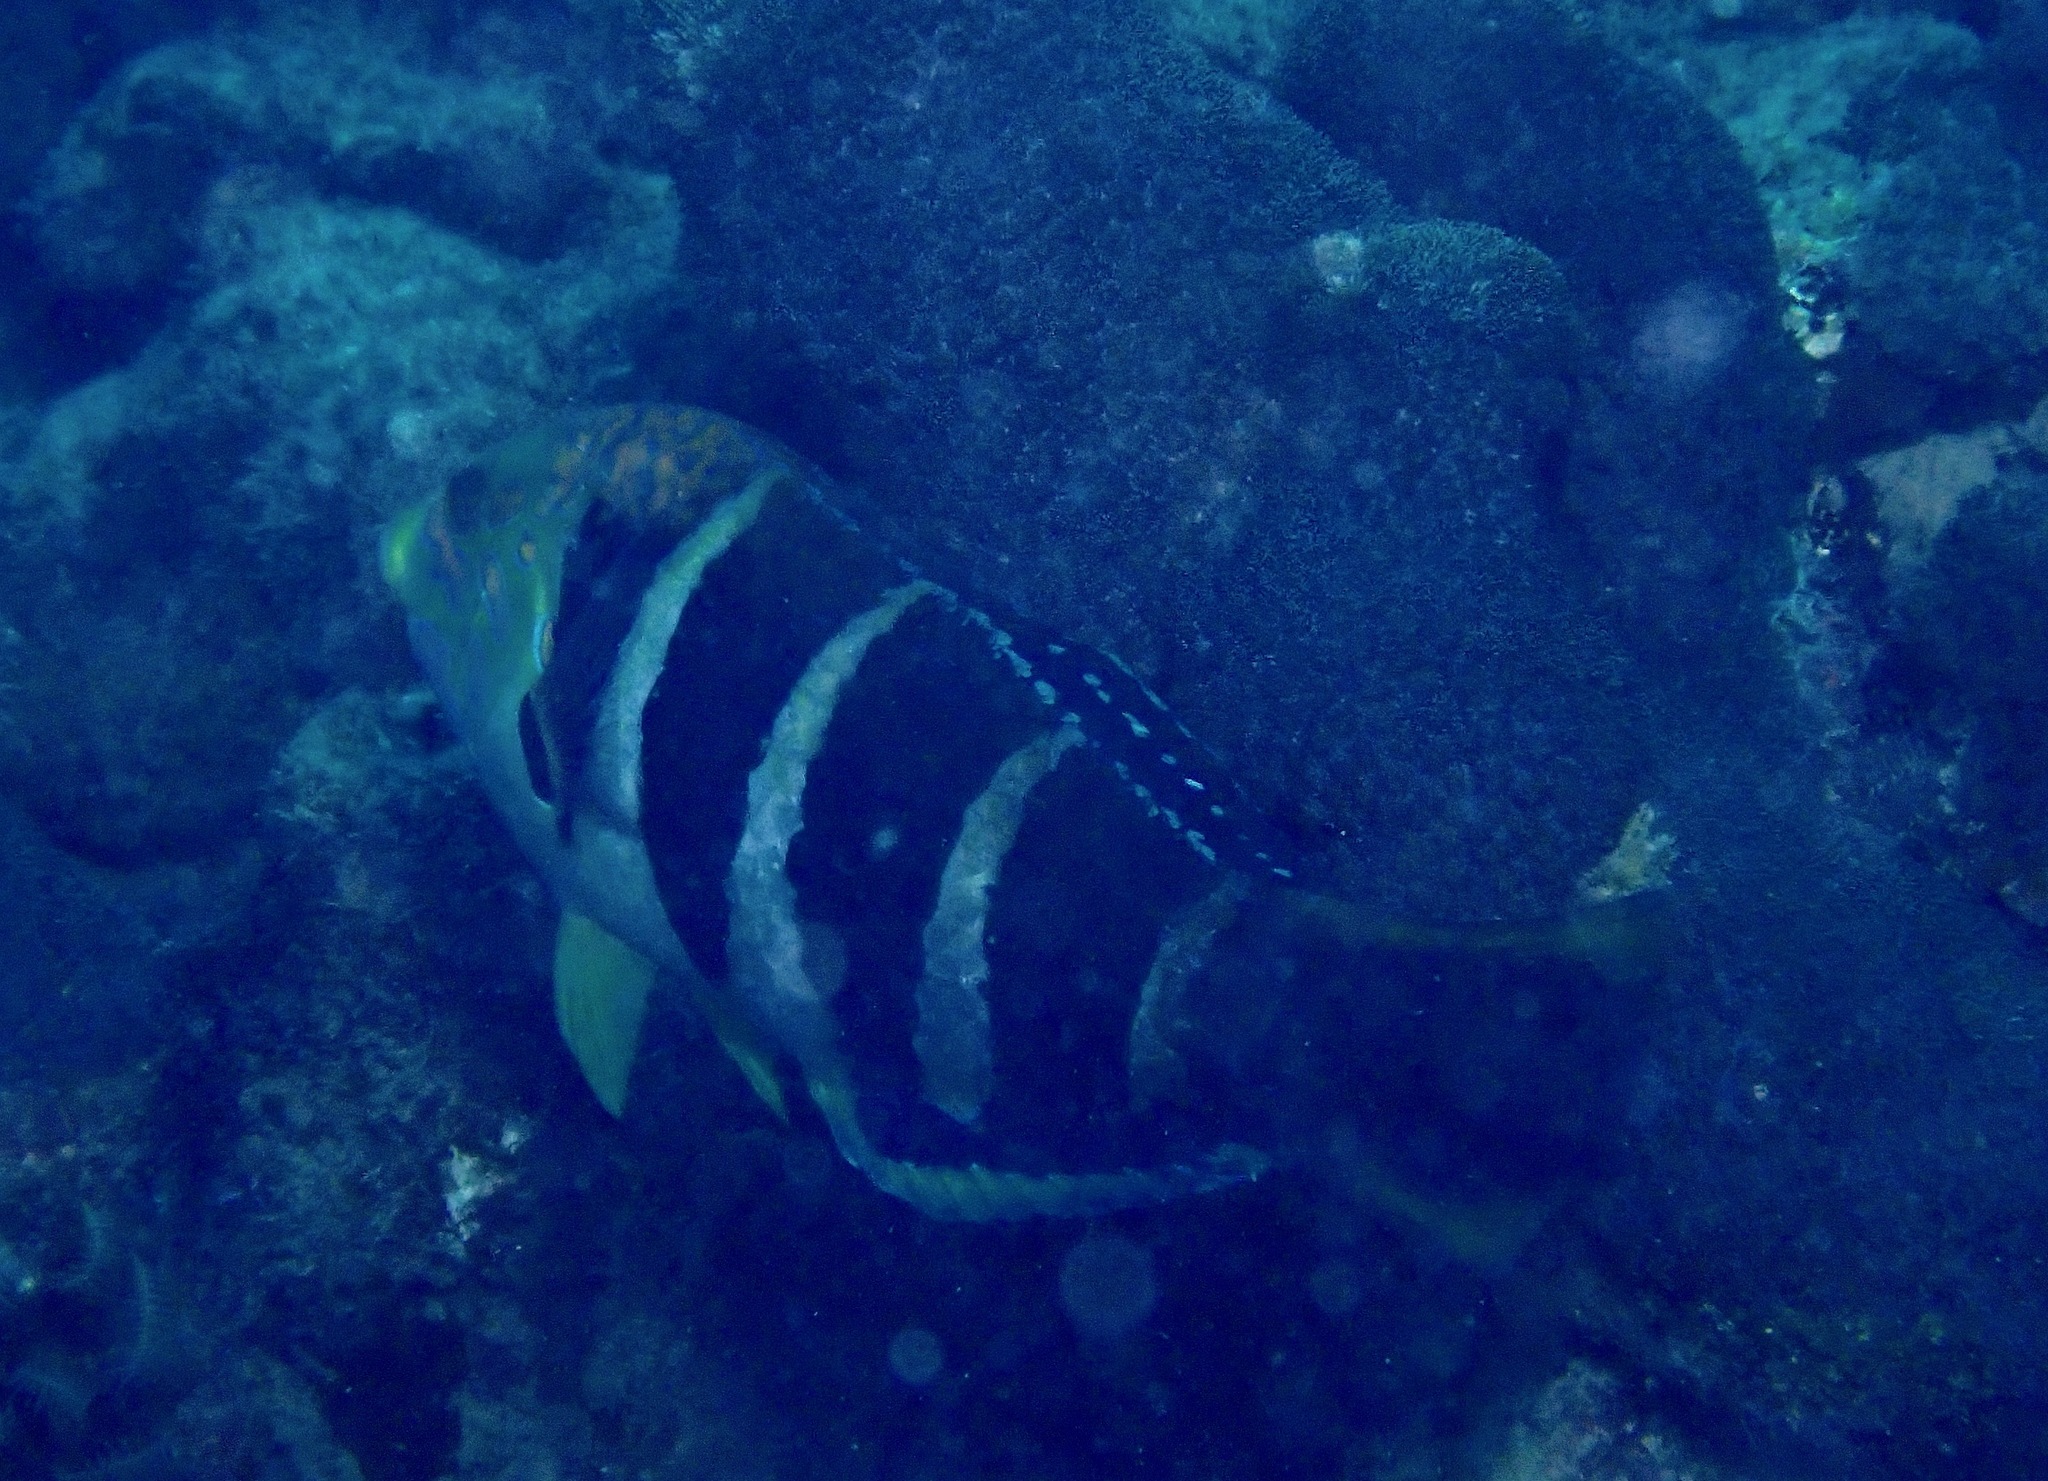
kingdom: Animalia
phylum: Chordata
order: Perciformes
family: Labridae
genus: Hemigymnus
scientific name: Hemigymnus fasciatus
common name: Barred thicklip
